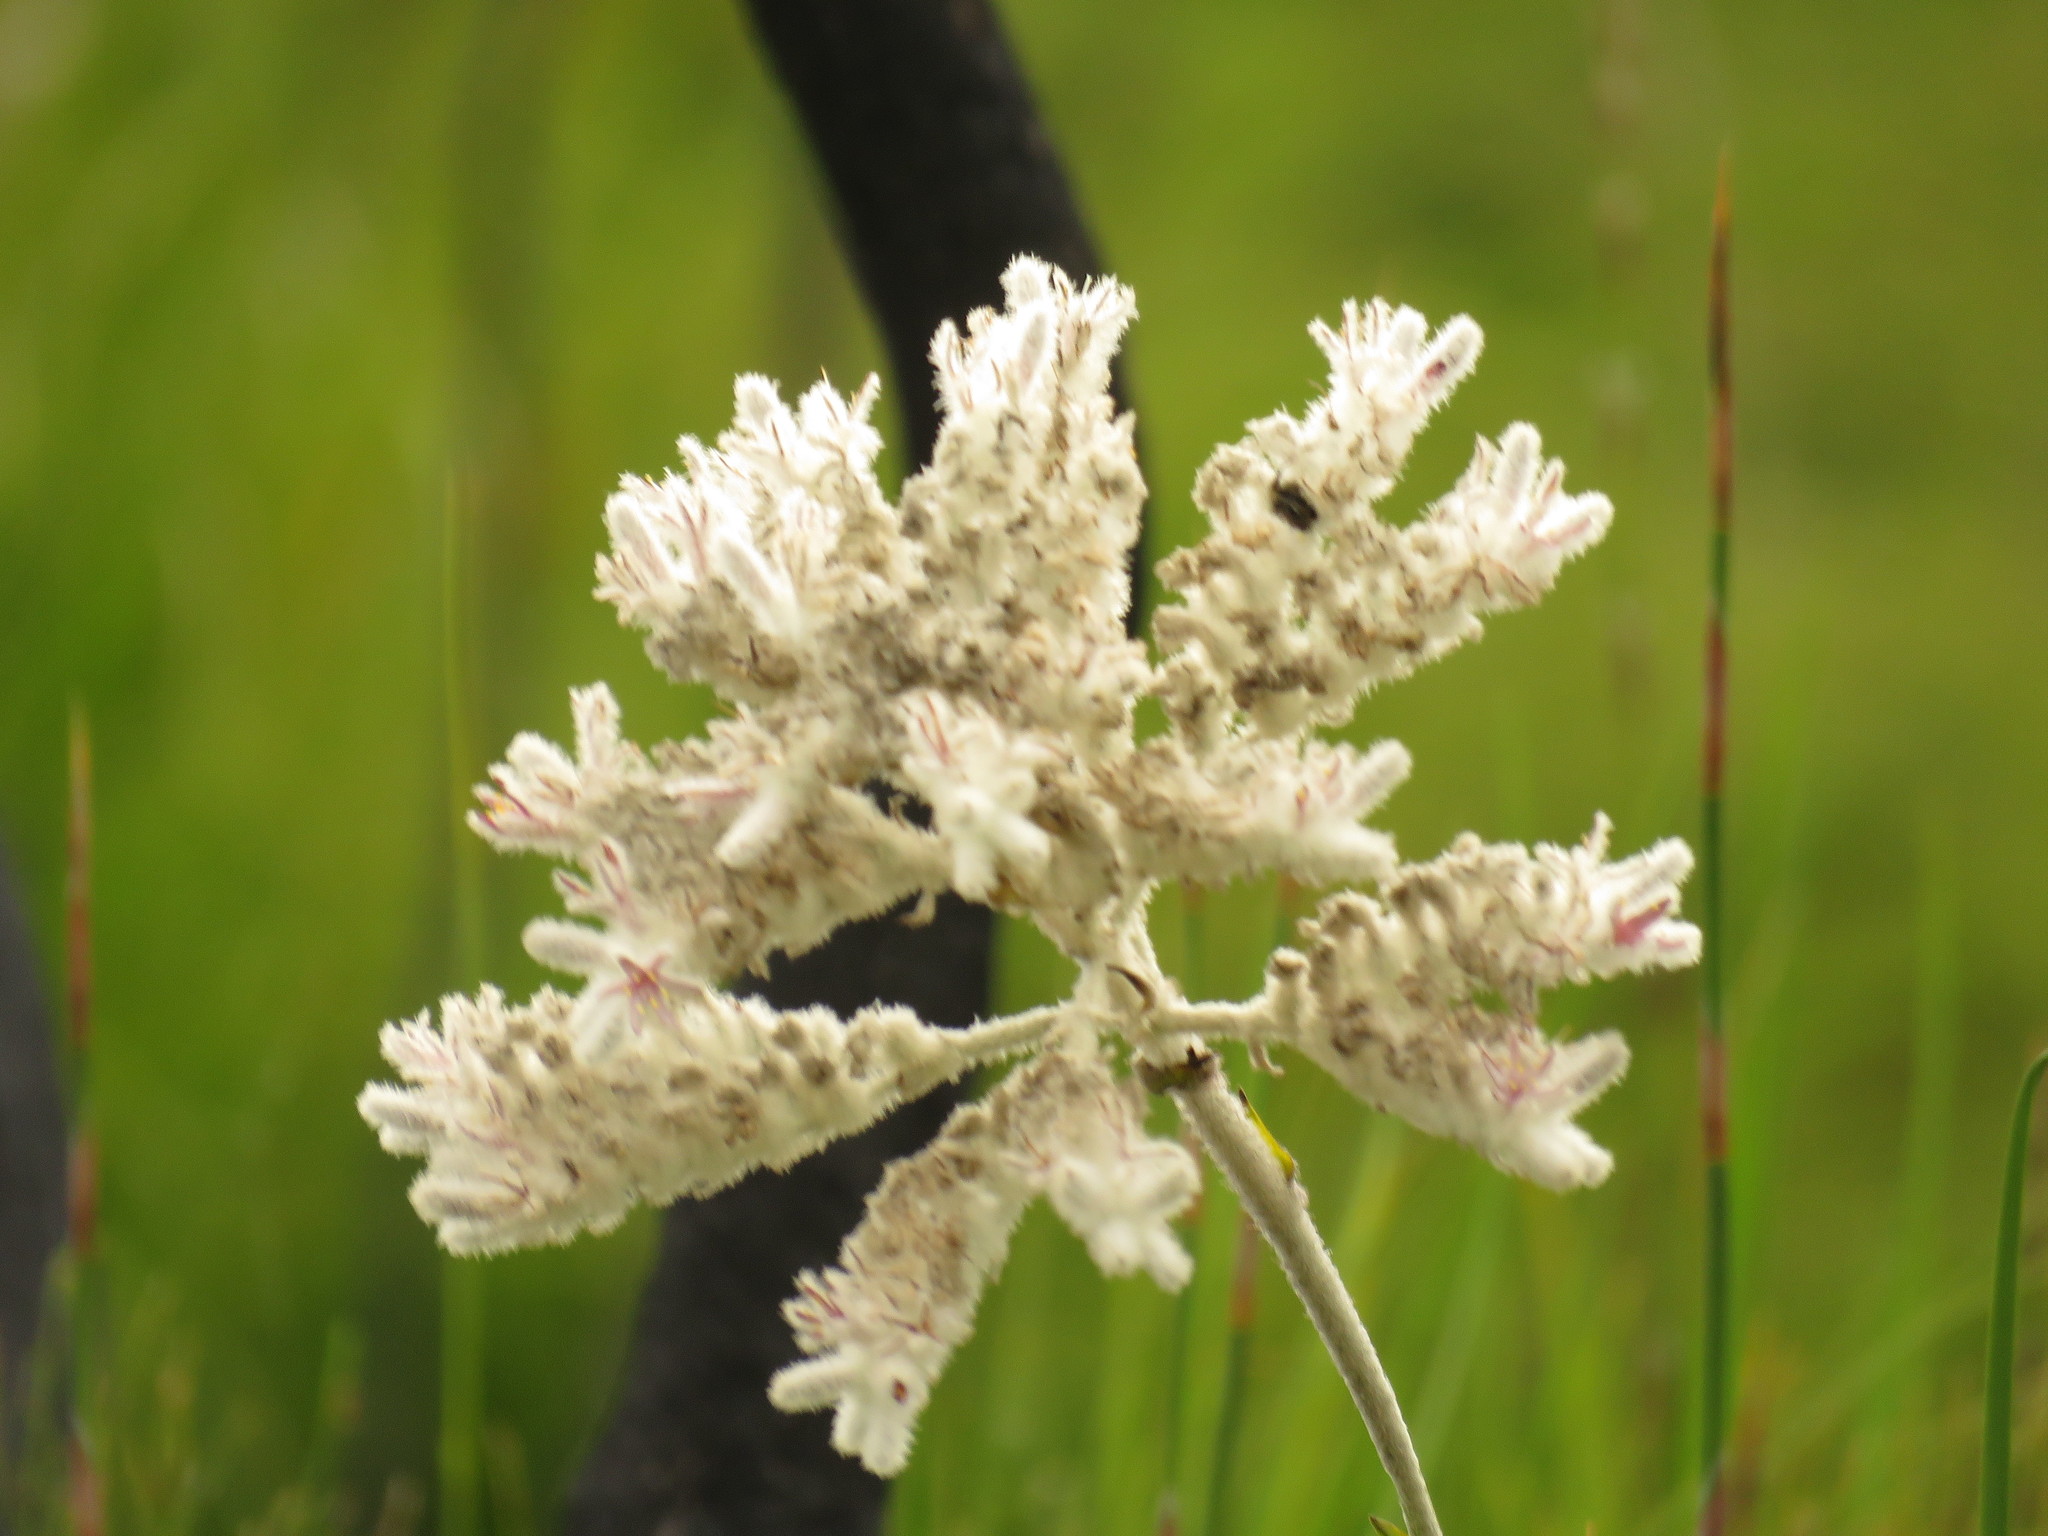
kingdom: Plantae
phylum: Tracheophyta
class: Liliopsida
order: Asparagales
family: Lanariaceae
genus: Lanaria
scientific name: Lanaria lanata
